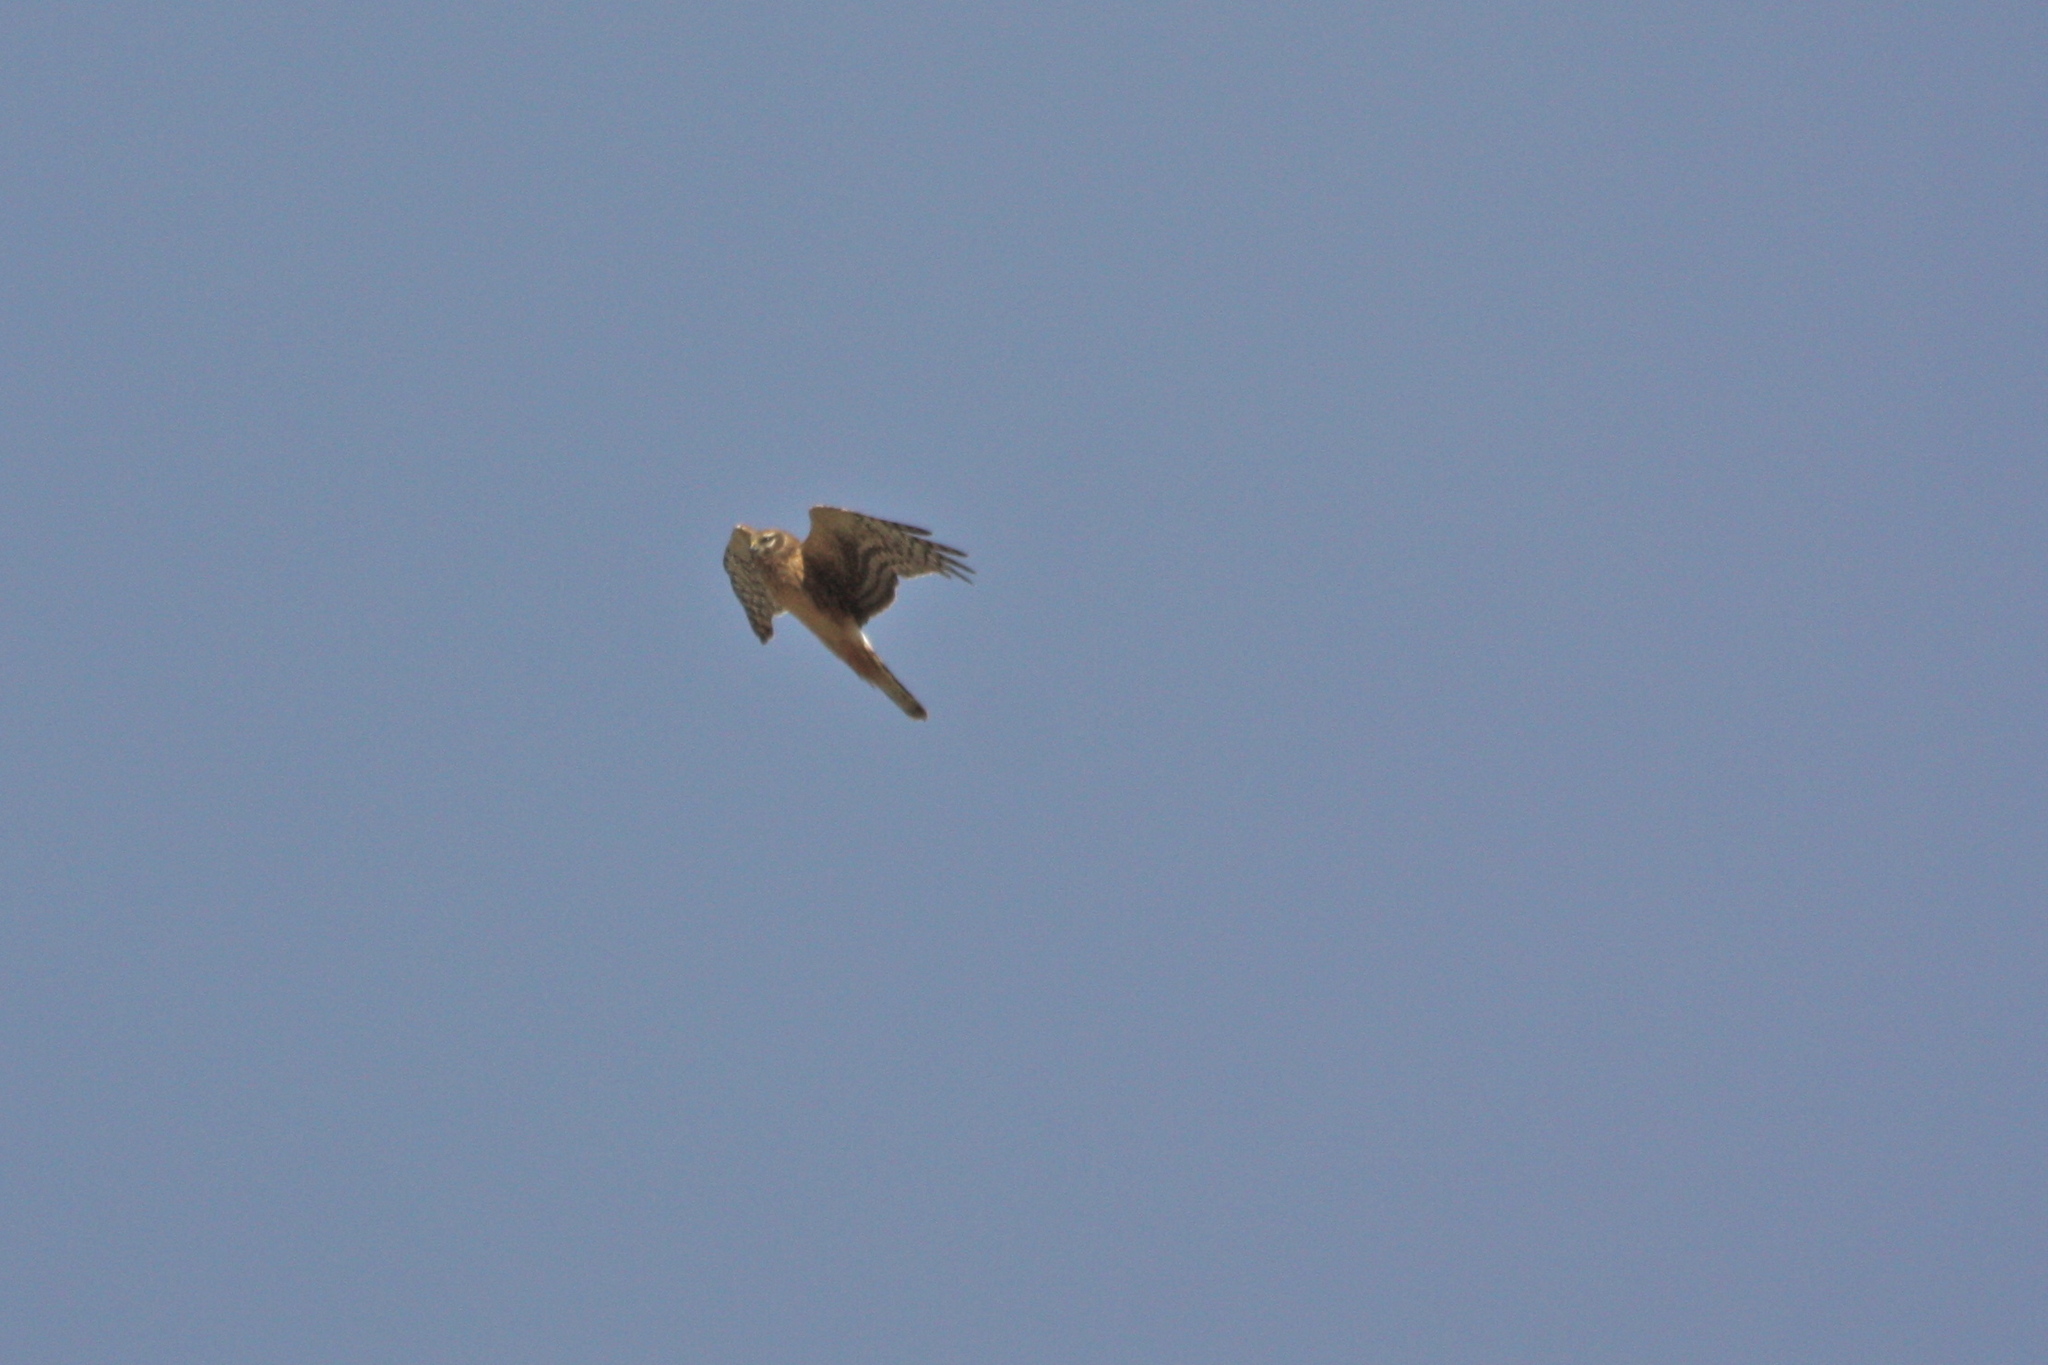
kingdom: Animalia
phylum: Chordata
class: Aves
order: Accipitriformes
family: Accipitridae
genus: Circus
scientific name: Circus cyaneus
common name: Hen harrier
